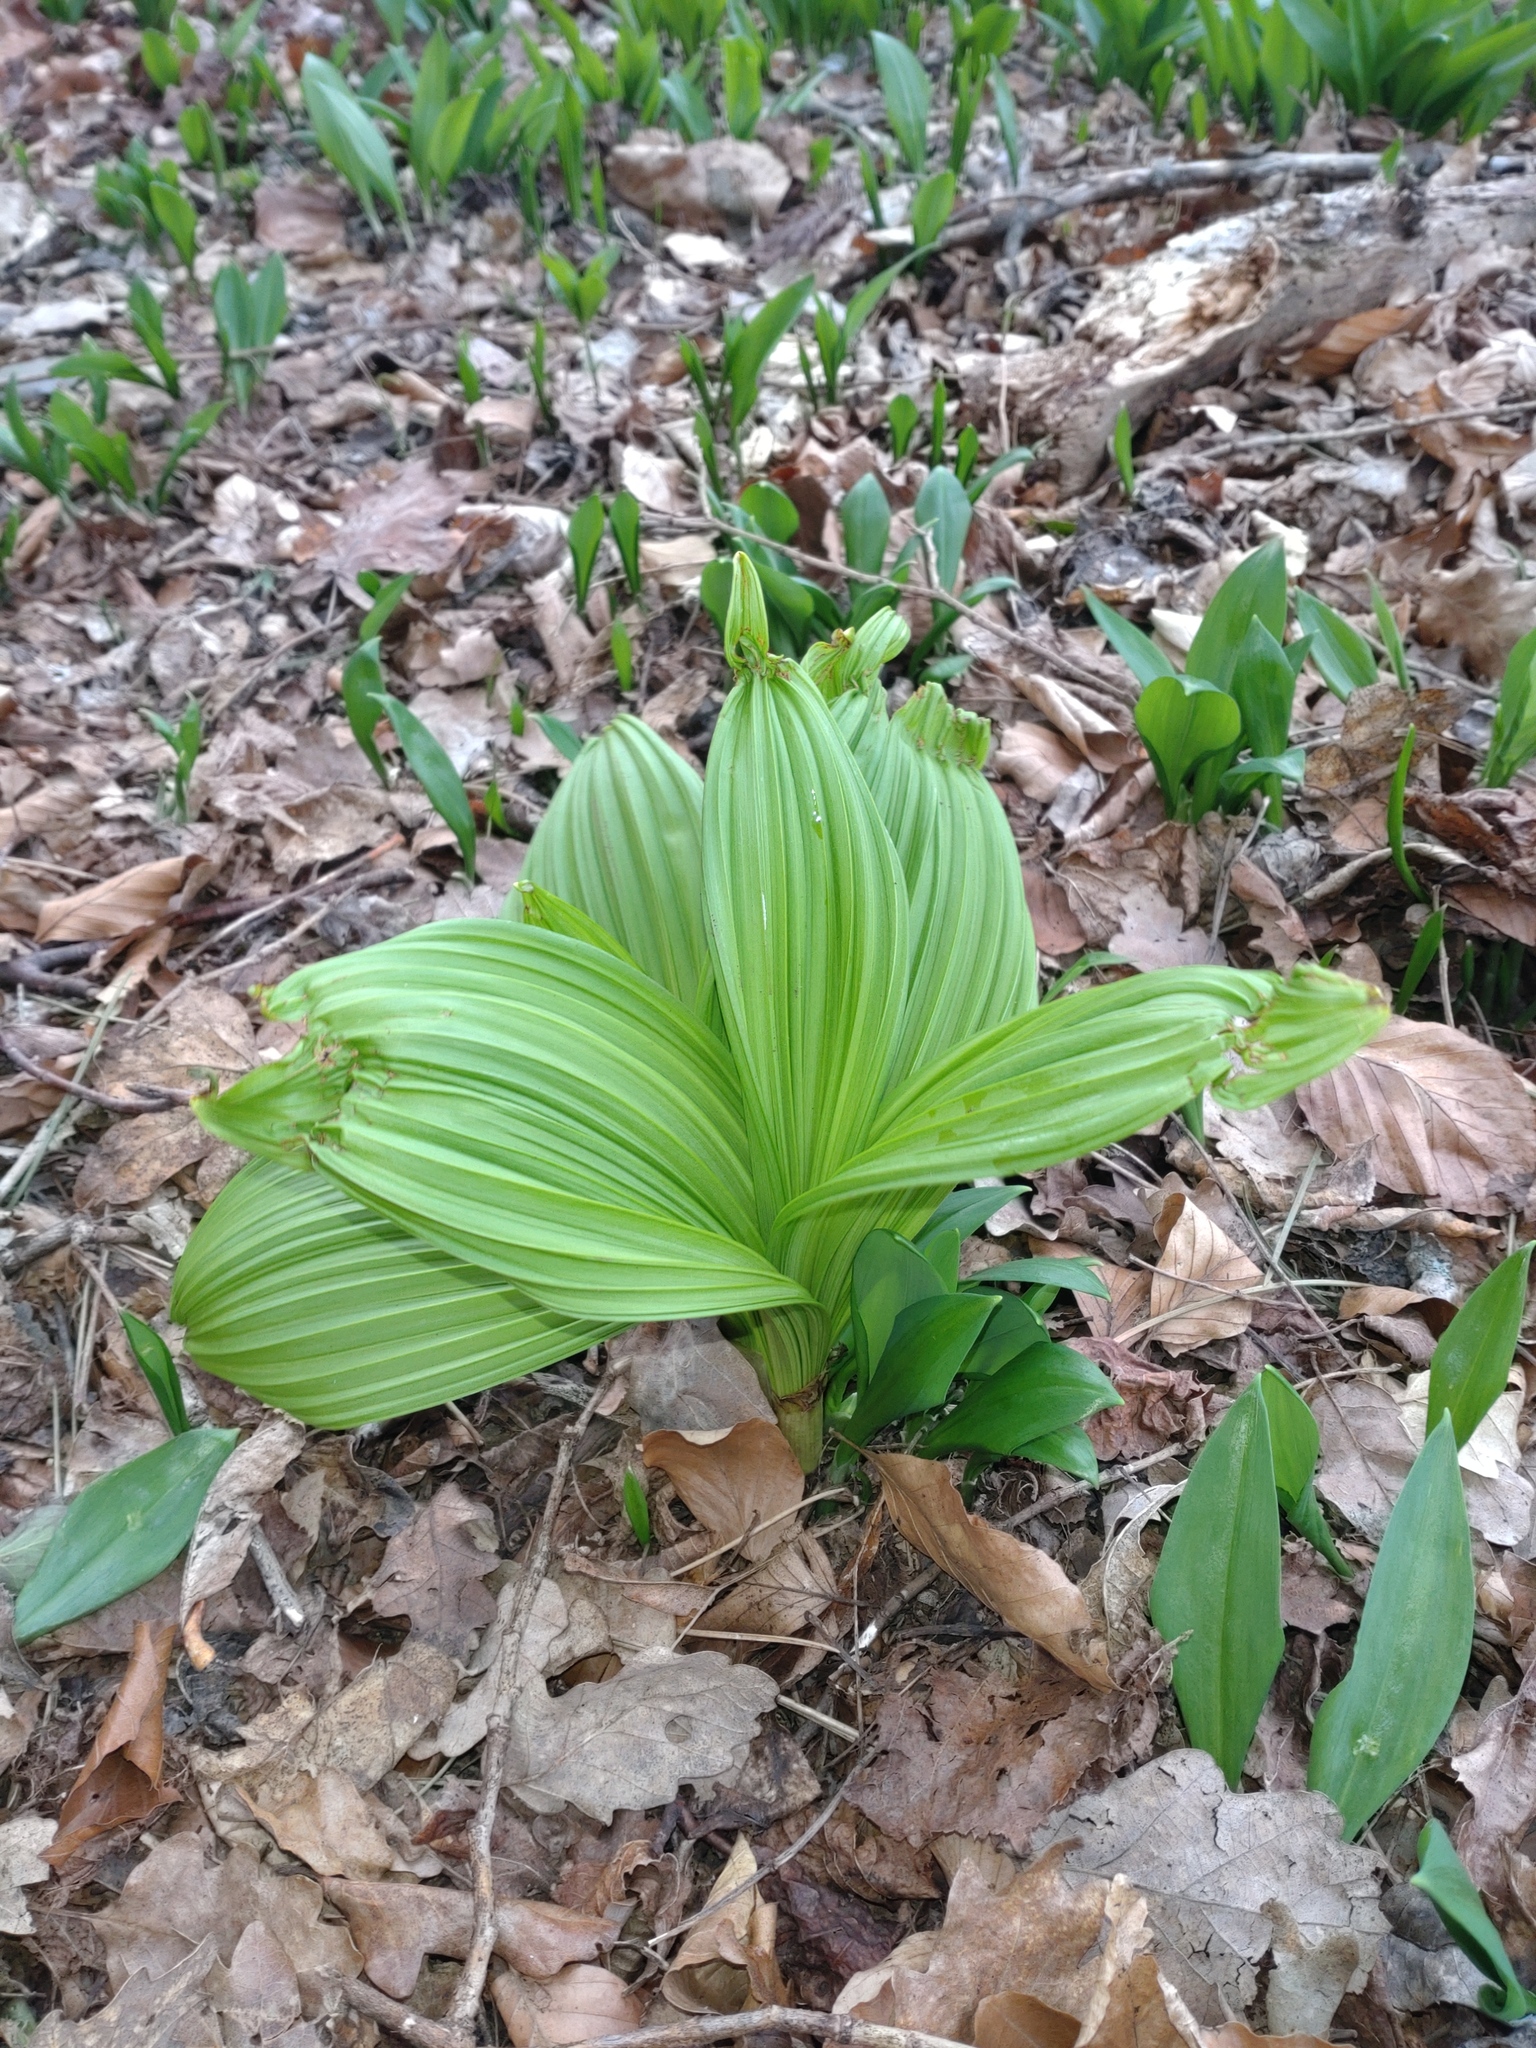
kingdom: Plantae
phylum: Tracheophyta
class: Liliopsida
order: Liliales
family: Melanthiaceae
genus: Veratrum
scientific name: Veratrum nigrum
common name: Black veratrum
